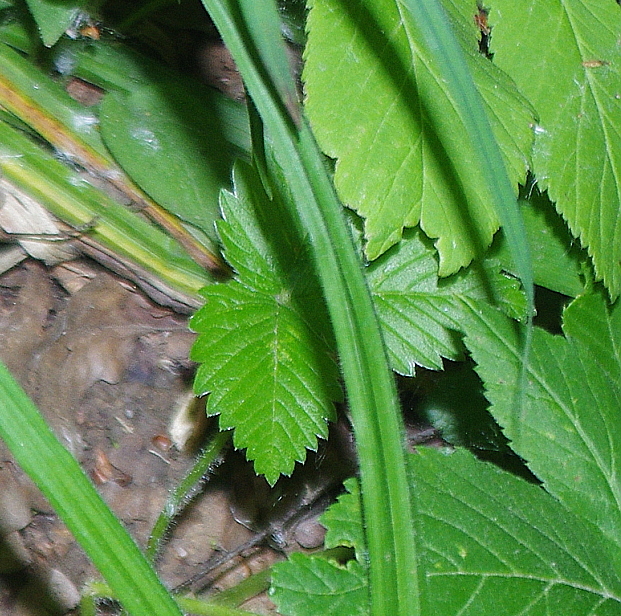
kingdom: Plantae
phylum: Tracheophyta
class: Magnoliopsida
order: Rosales
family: Rosaceae
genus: Fragaria
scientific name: Fragaria vesca
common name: Wild strawberry
